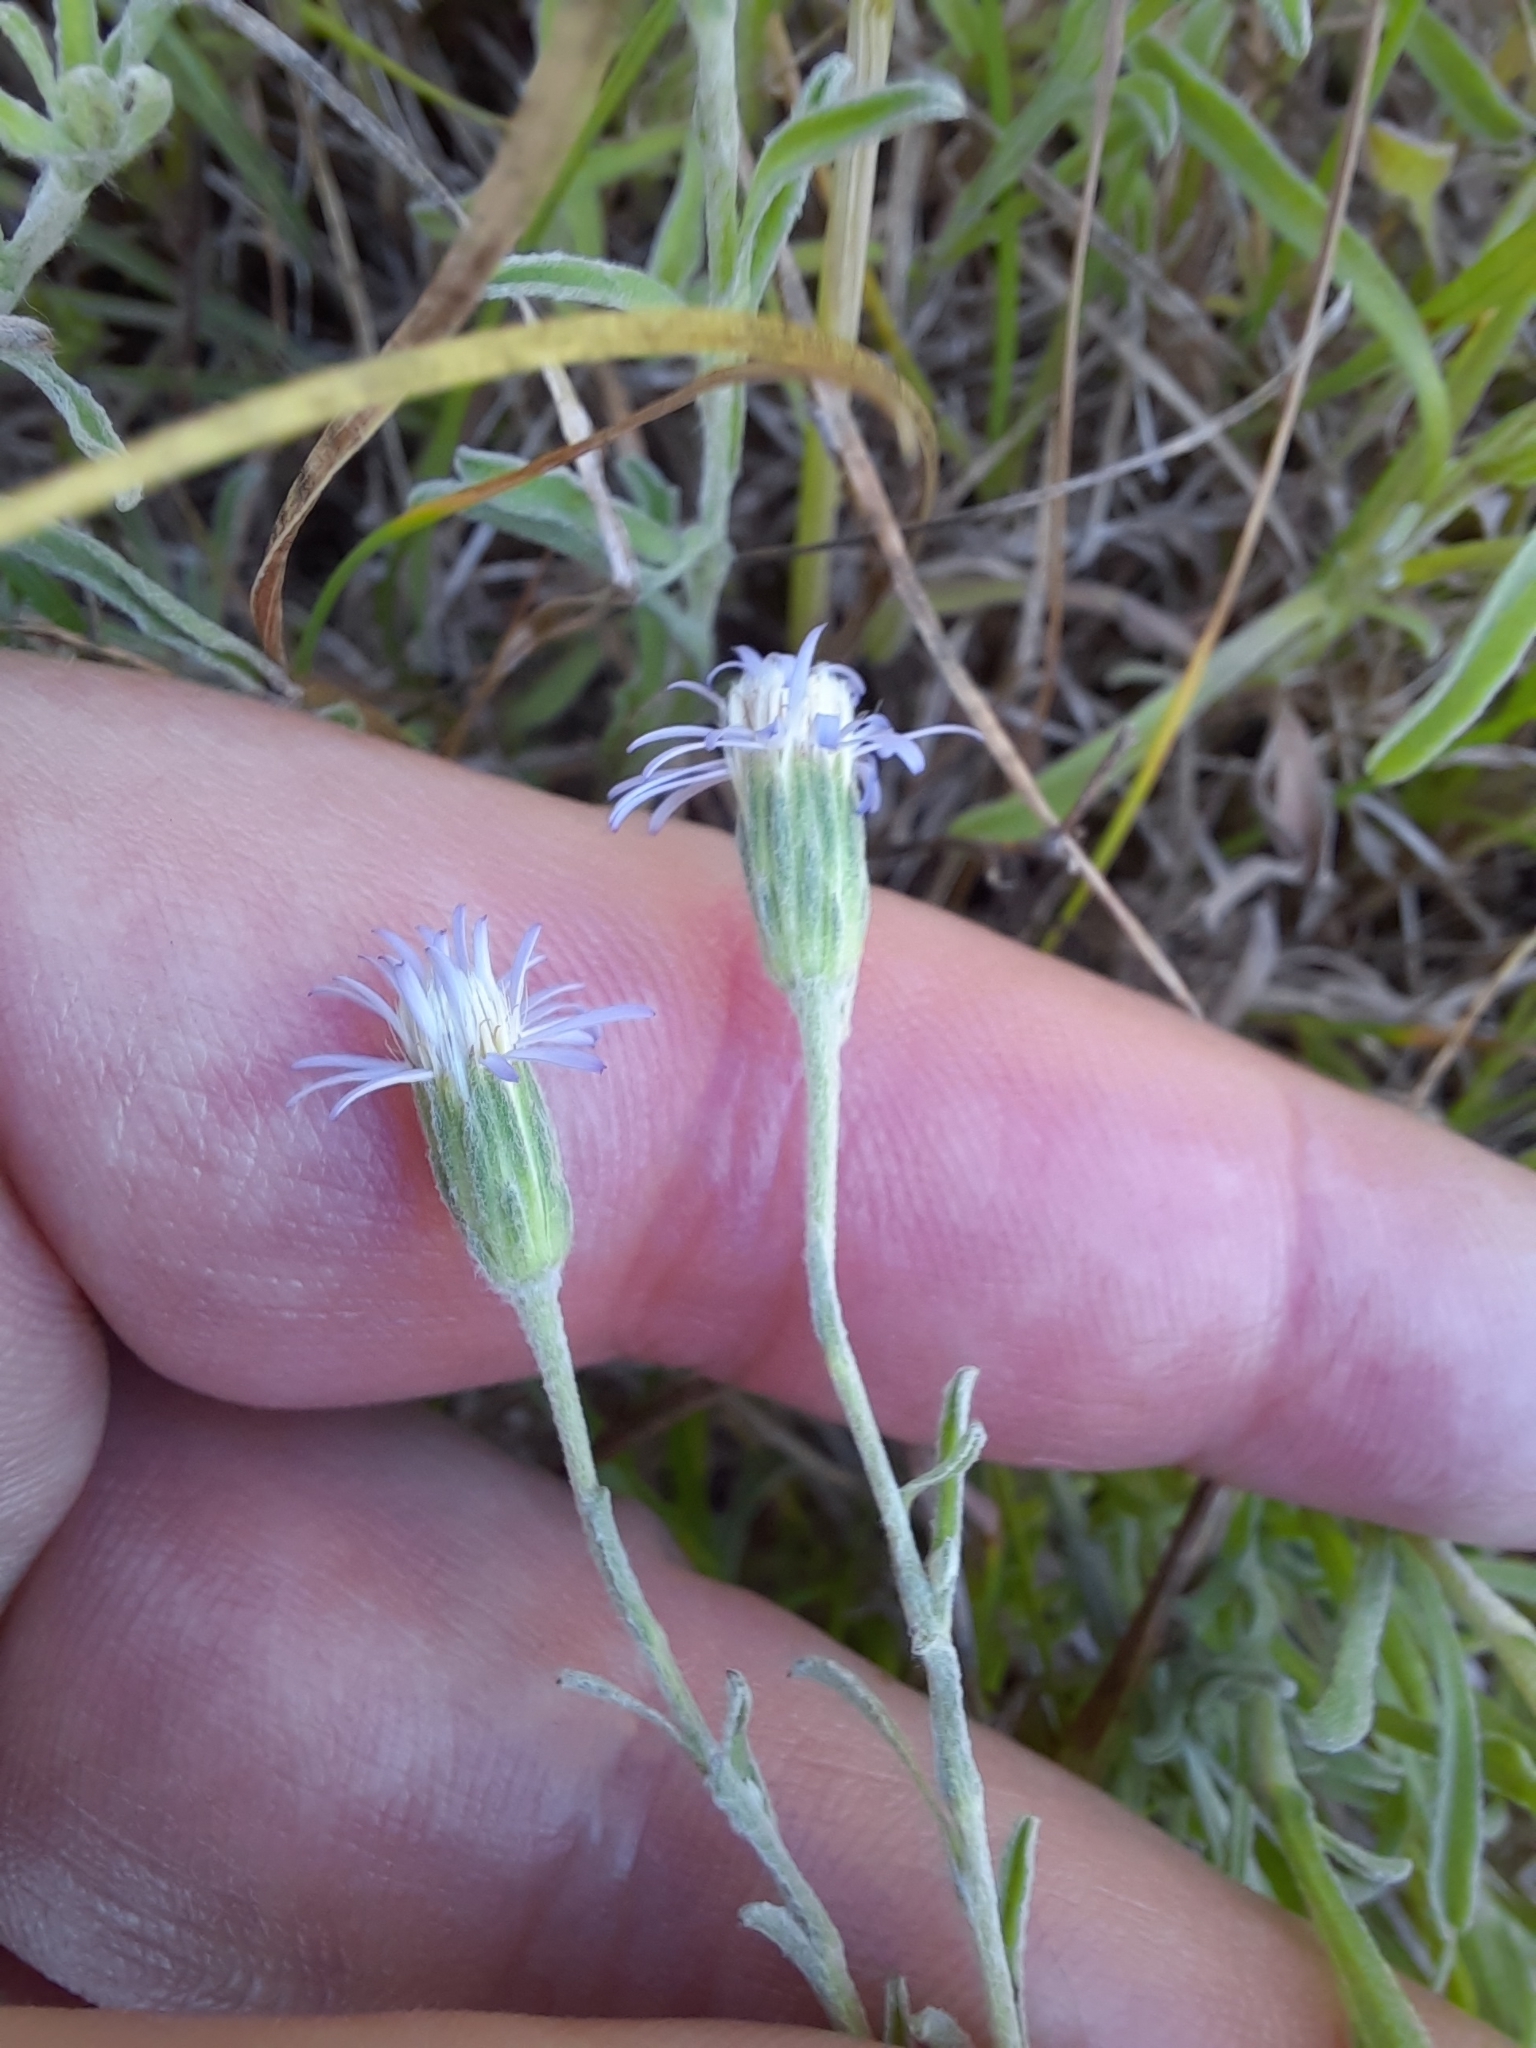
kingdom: Plantae
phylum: Tracheophyta
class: Magnoliopsida
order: Asterales
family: Asteraceae
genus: Vittadinia
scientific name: Vittadinia gracilis
